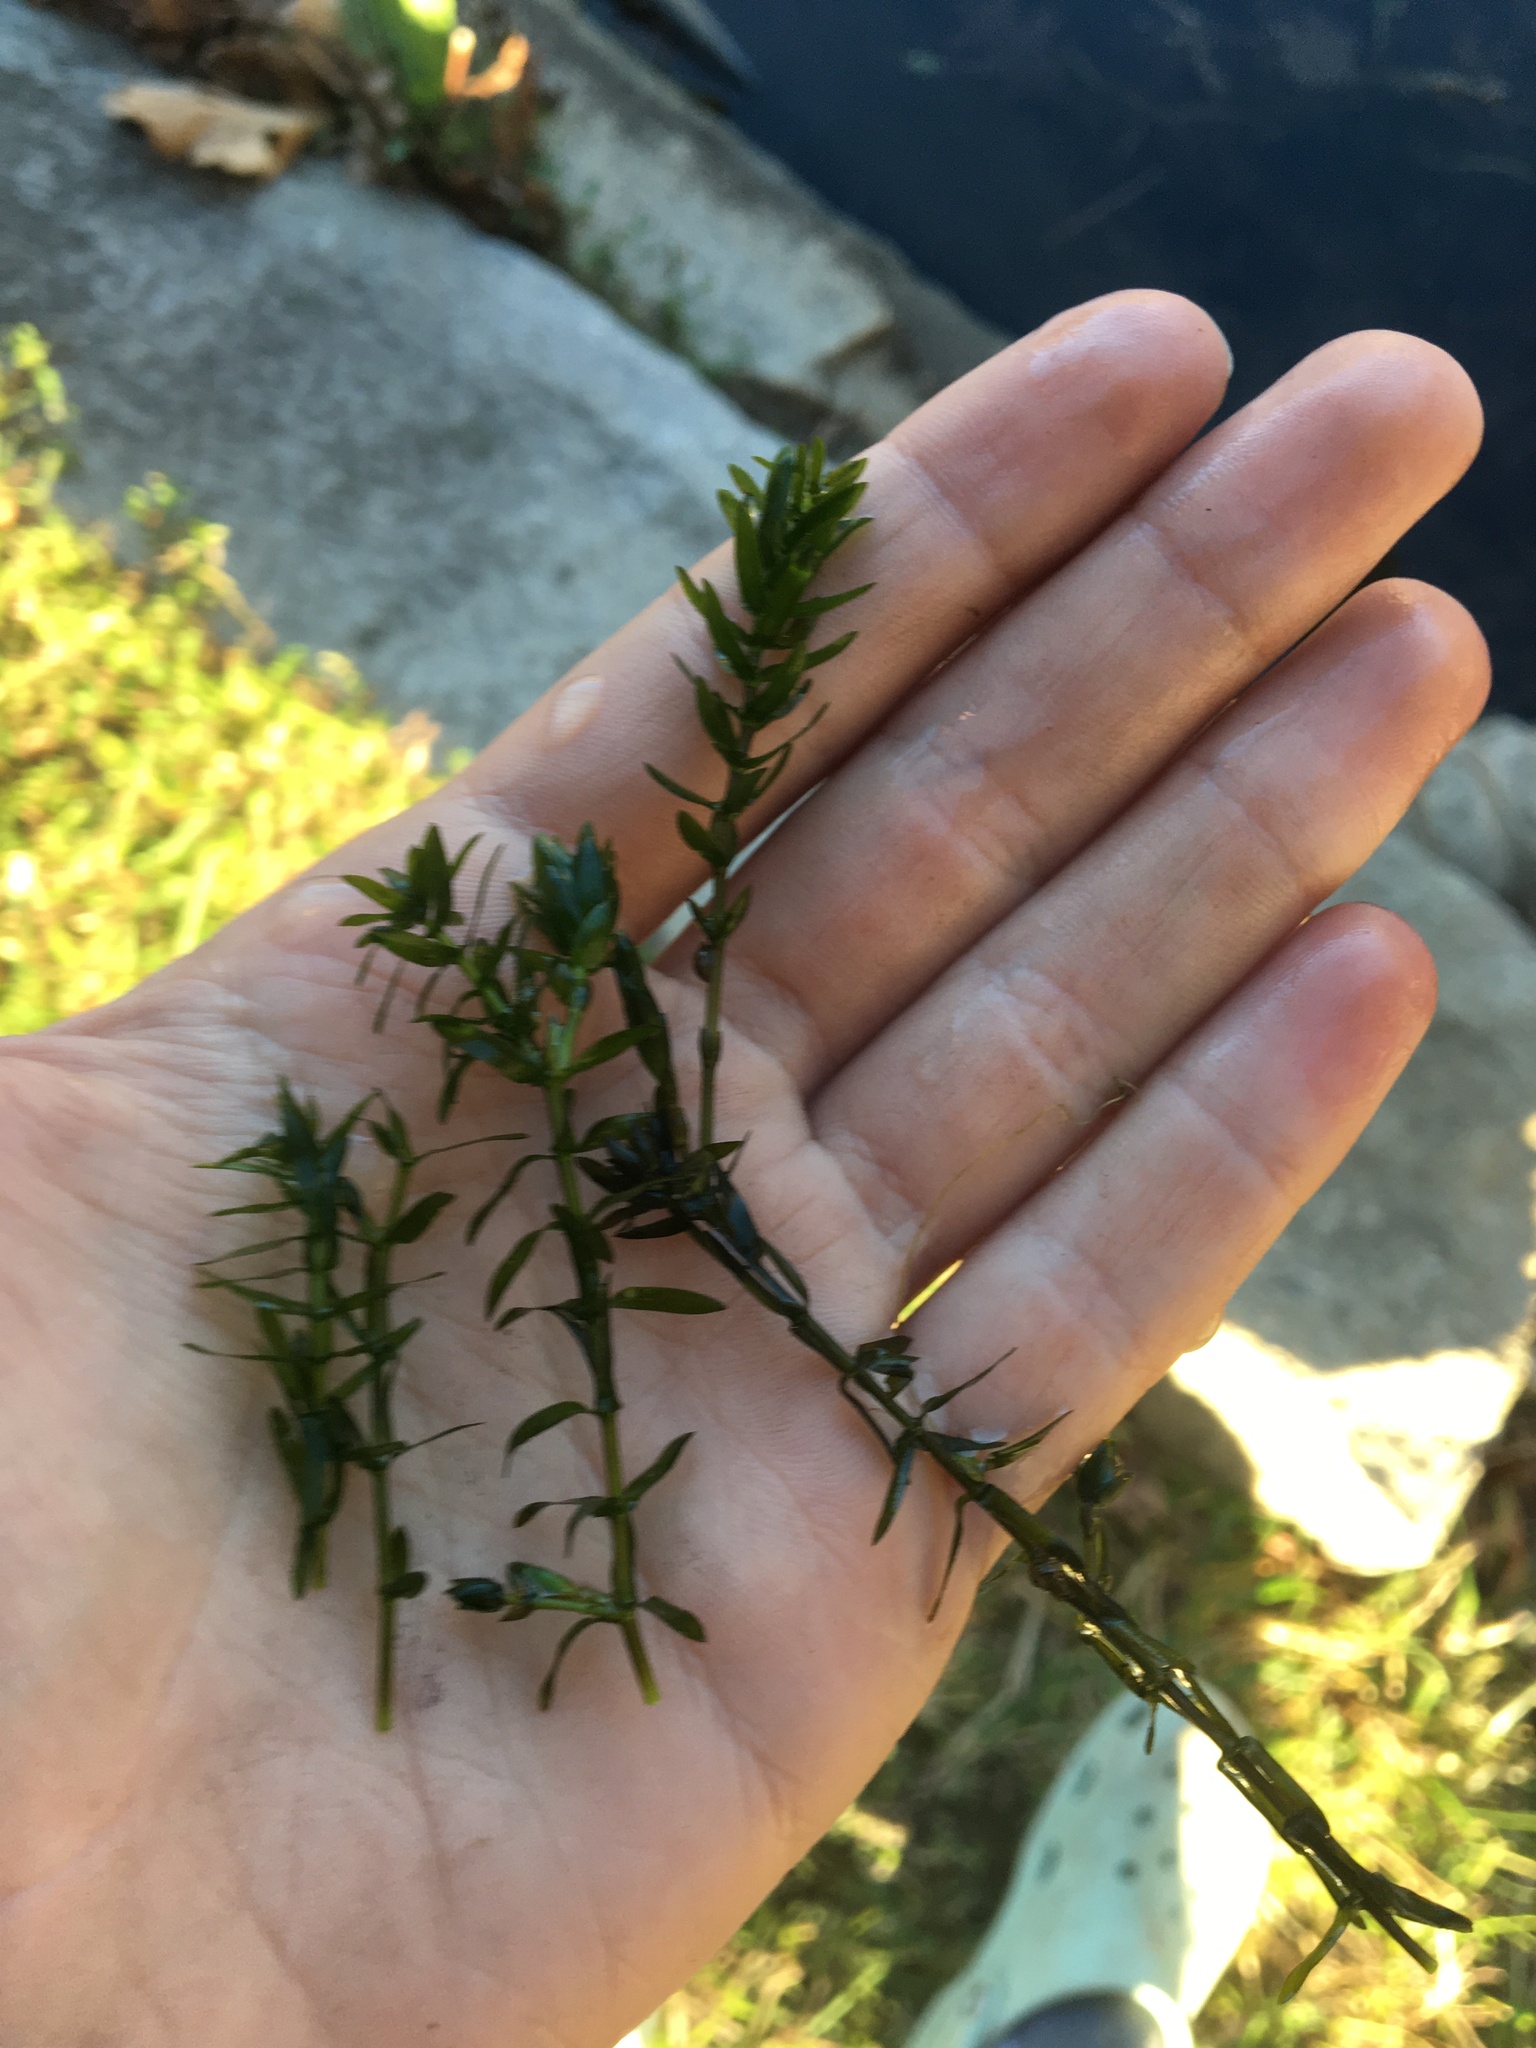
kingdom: Plantae
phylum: Tracheophyta
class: Liliopsida
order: Alismatales
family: Hydrocharitaceae
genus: Elodea
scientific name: Elodea canadensis
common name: Canadian waterweed
